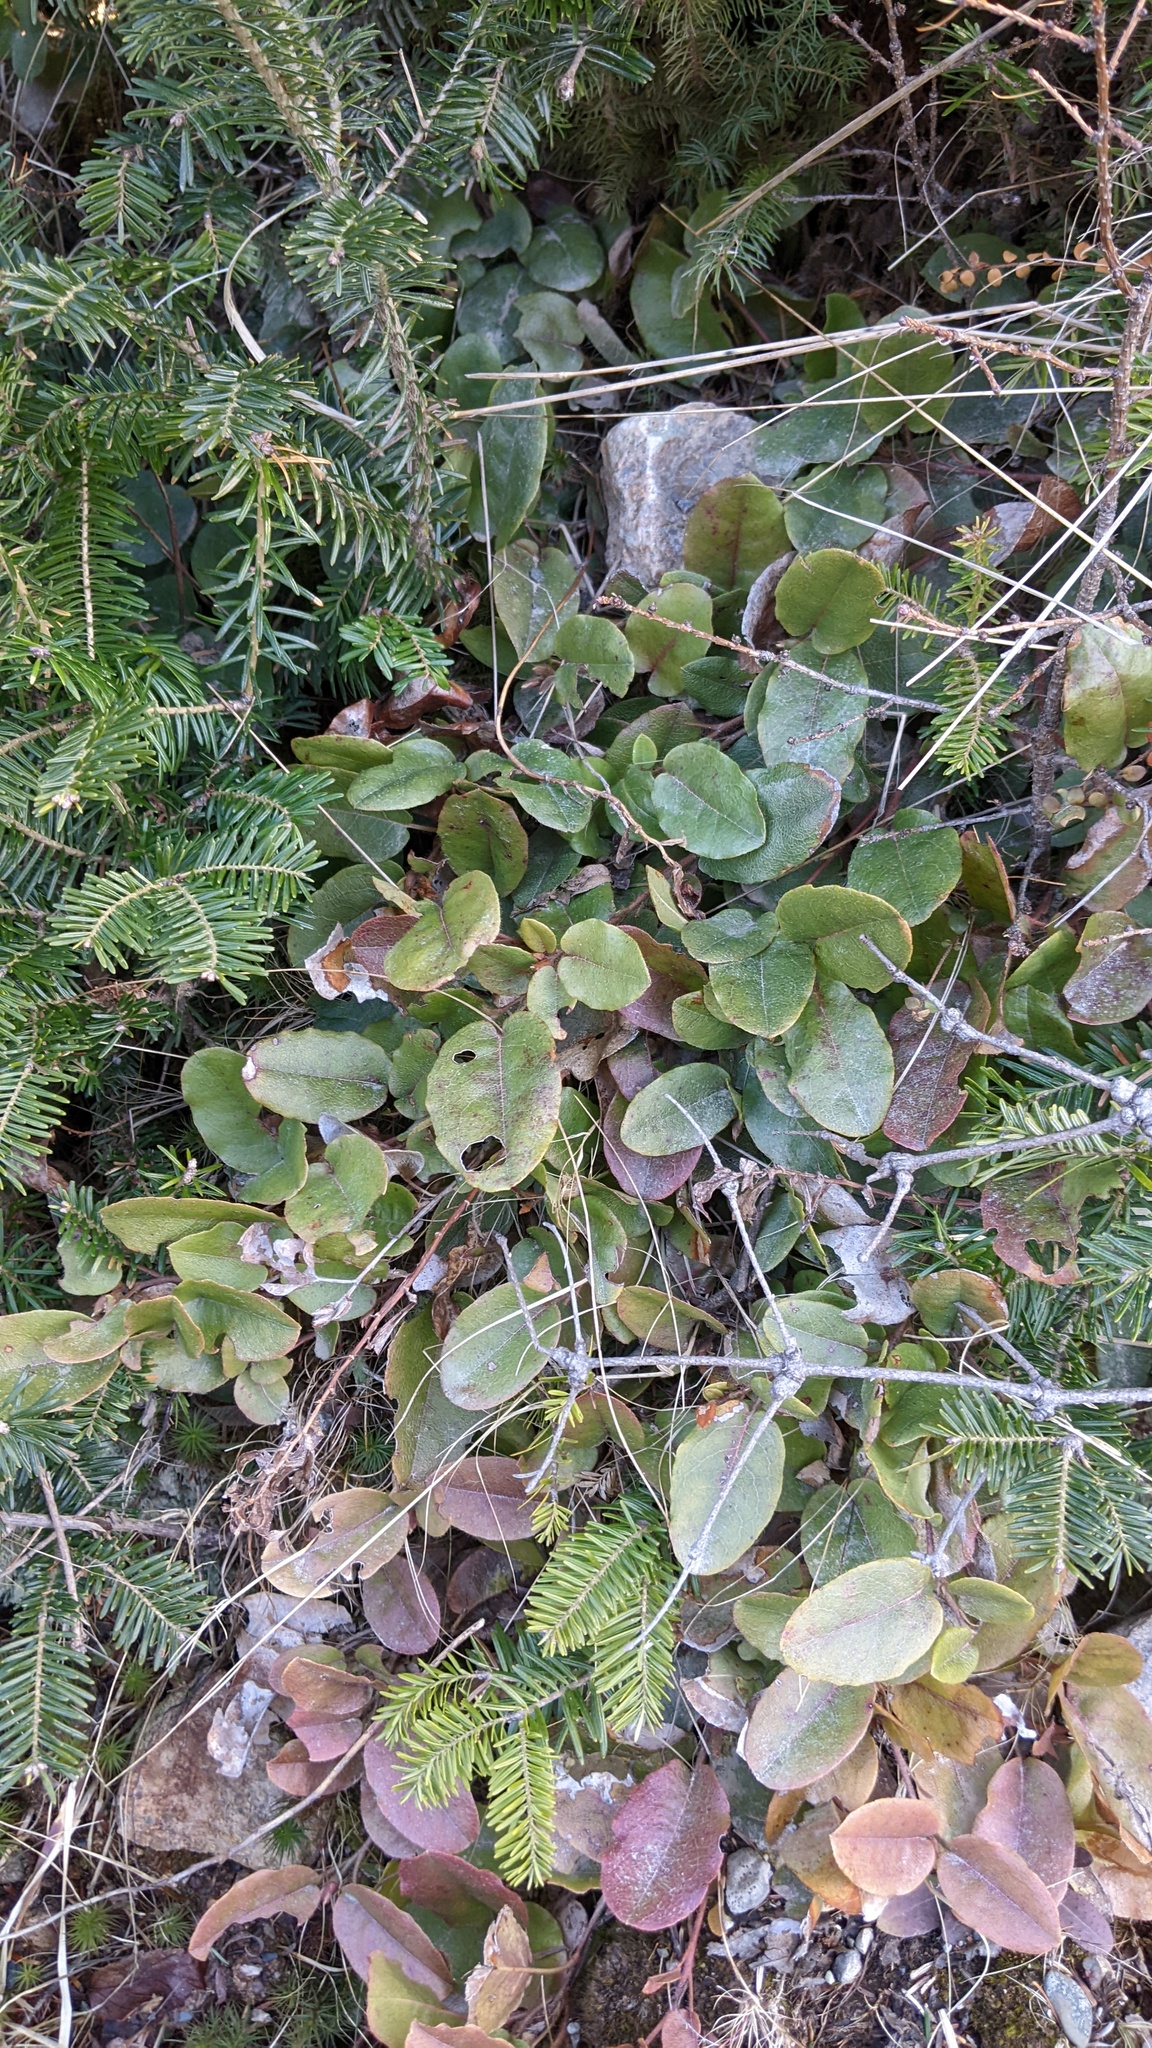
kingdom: Plantae
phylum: Tracheophyta
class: Magnoliopsida
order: Ericales
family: Ericaceae
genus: Epigaea
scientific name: Epigaea repens
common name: Gravelroot
